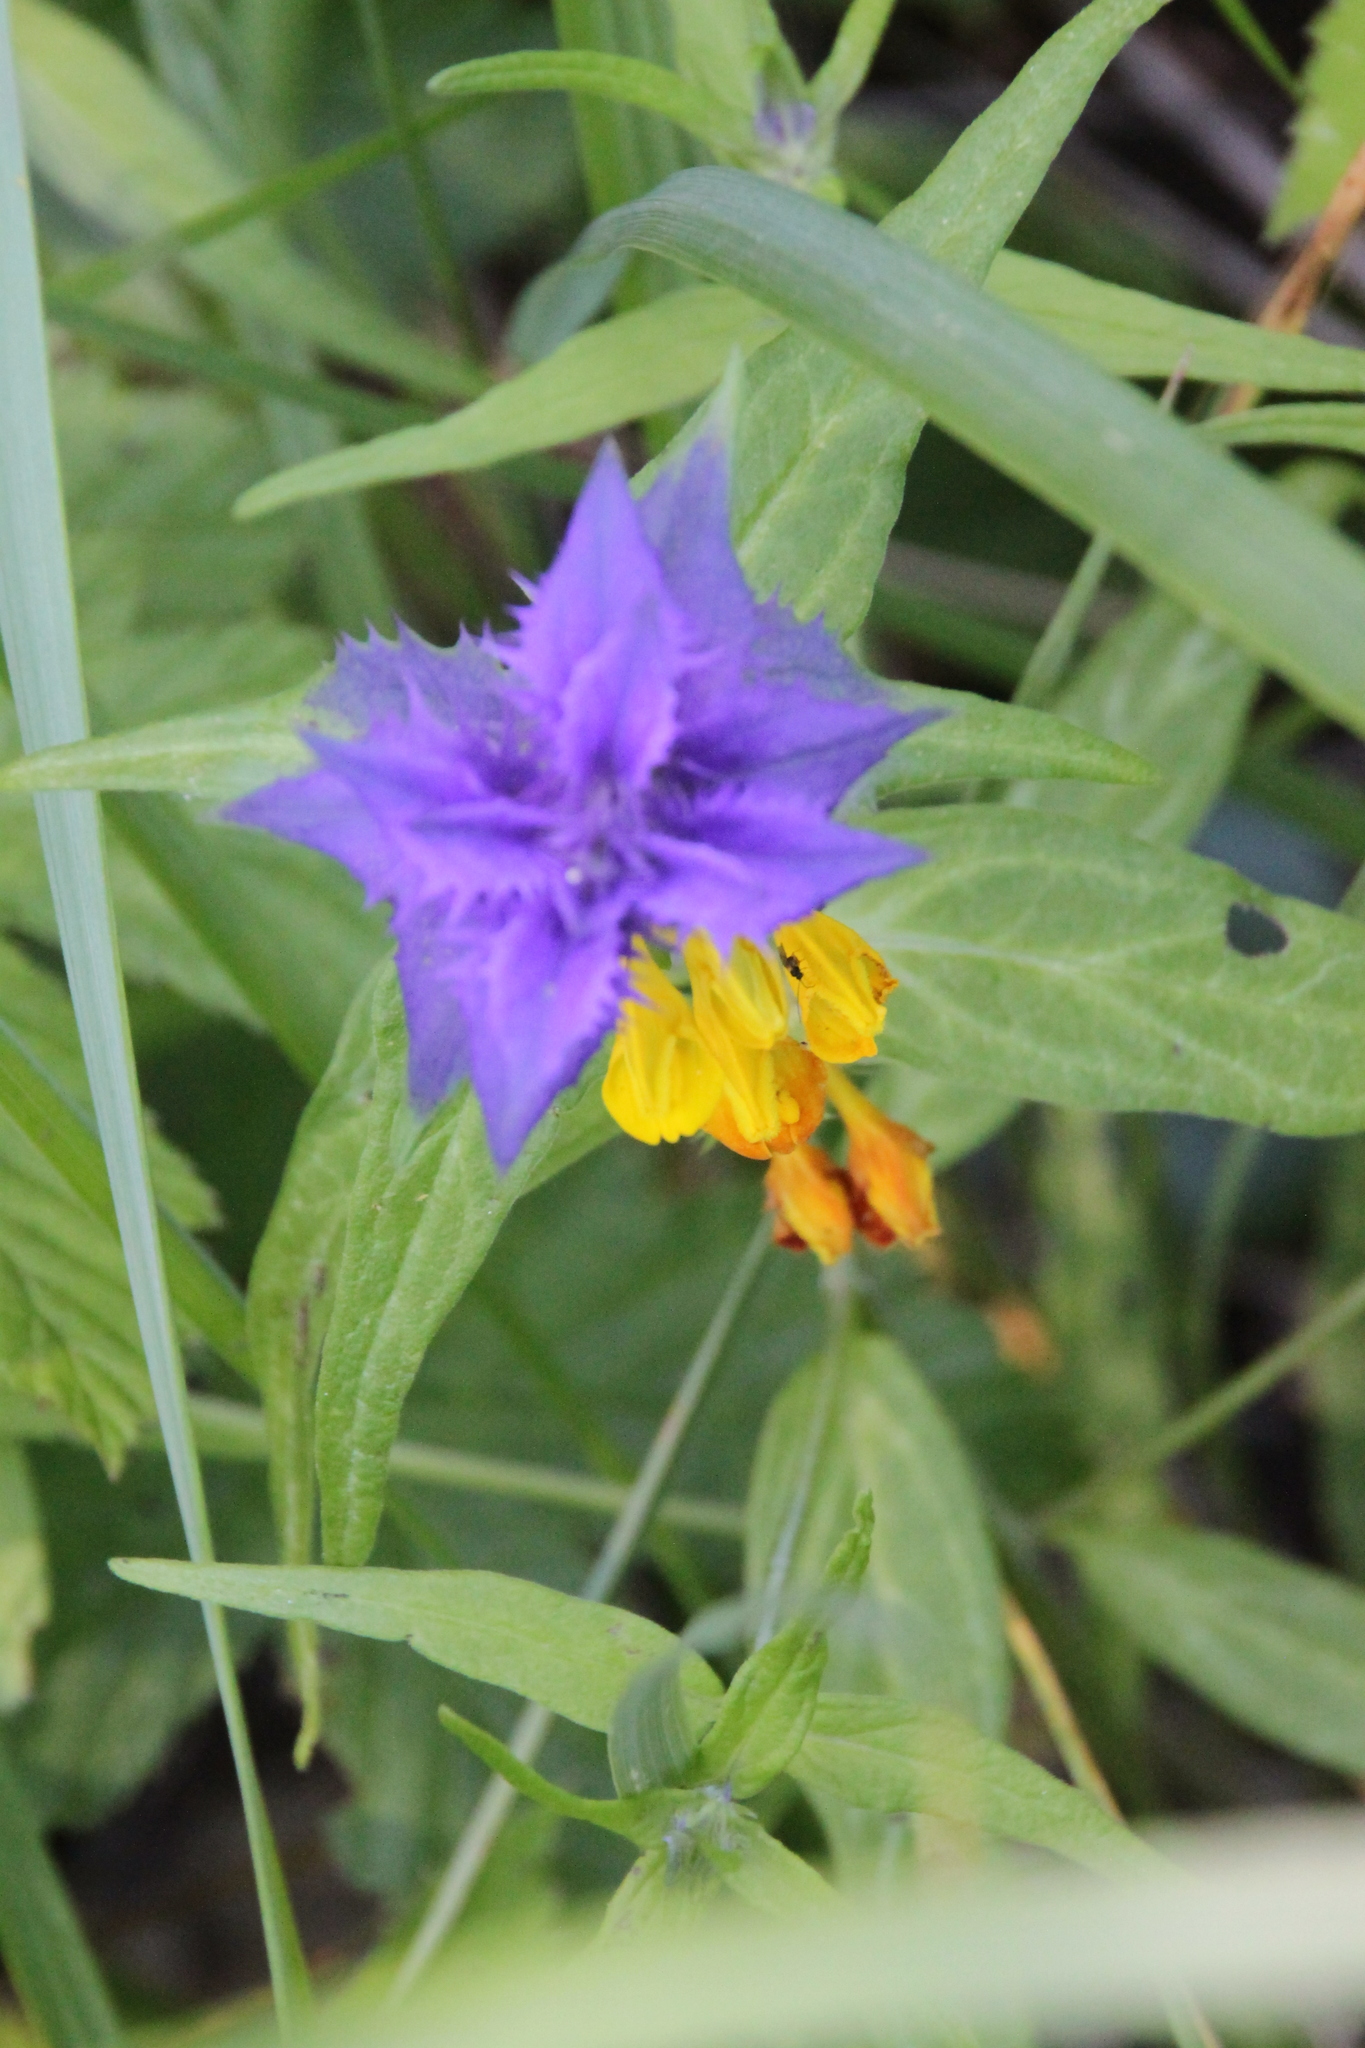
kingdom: Plantae
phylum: Tracheophyta
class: Magnoliopsida
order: Lamiales
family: Orobanchaceae
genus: Melampyrum
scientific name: Melampyrum nemorosum
